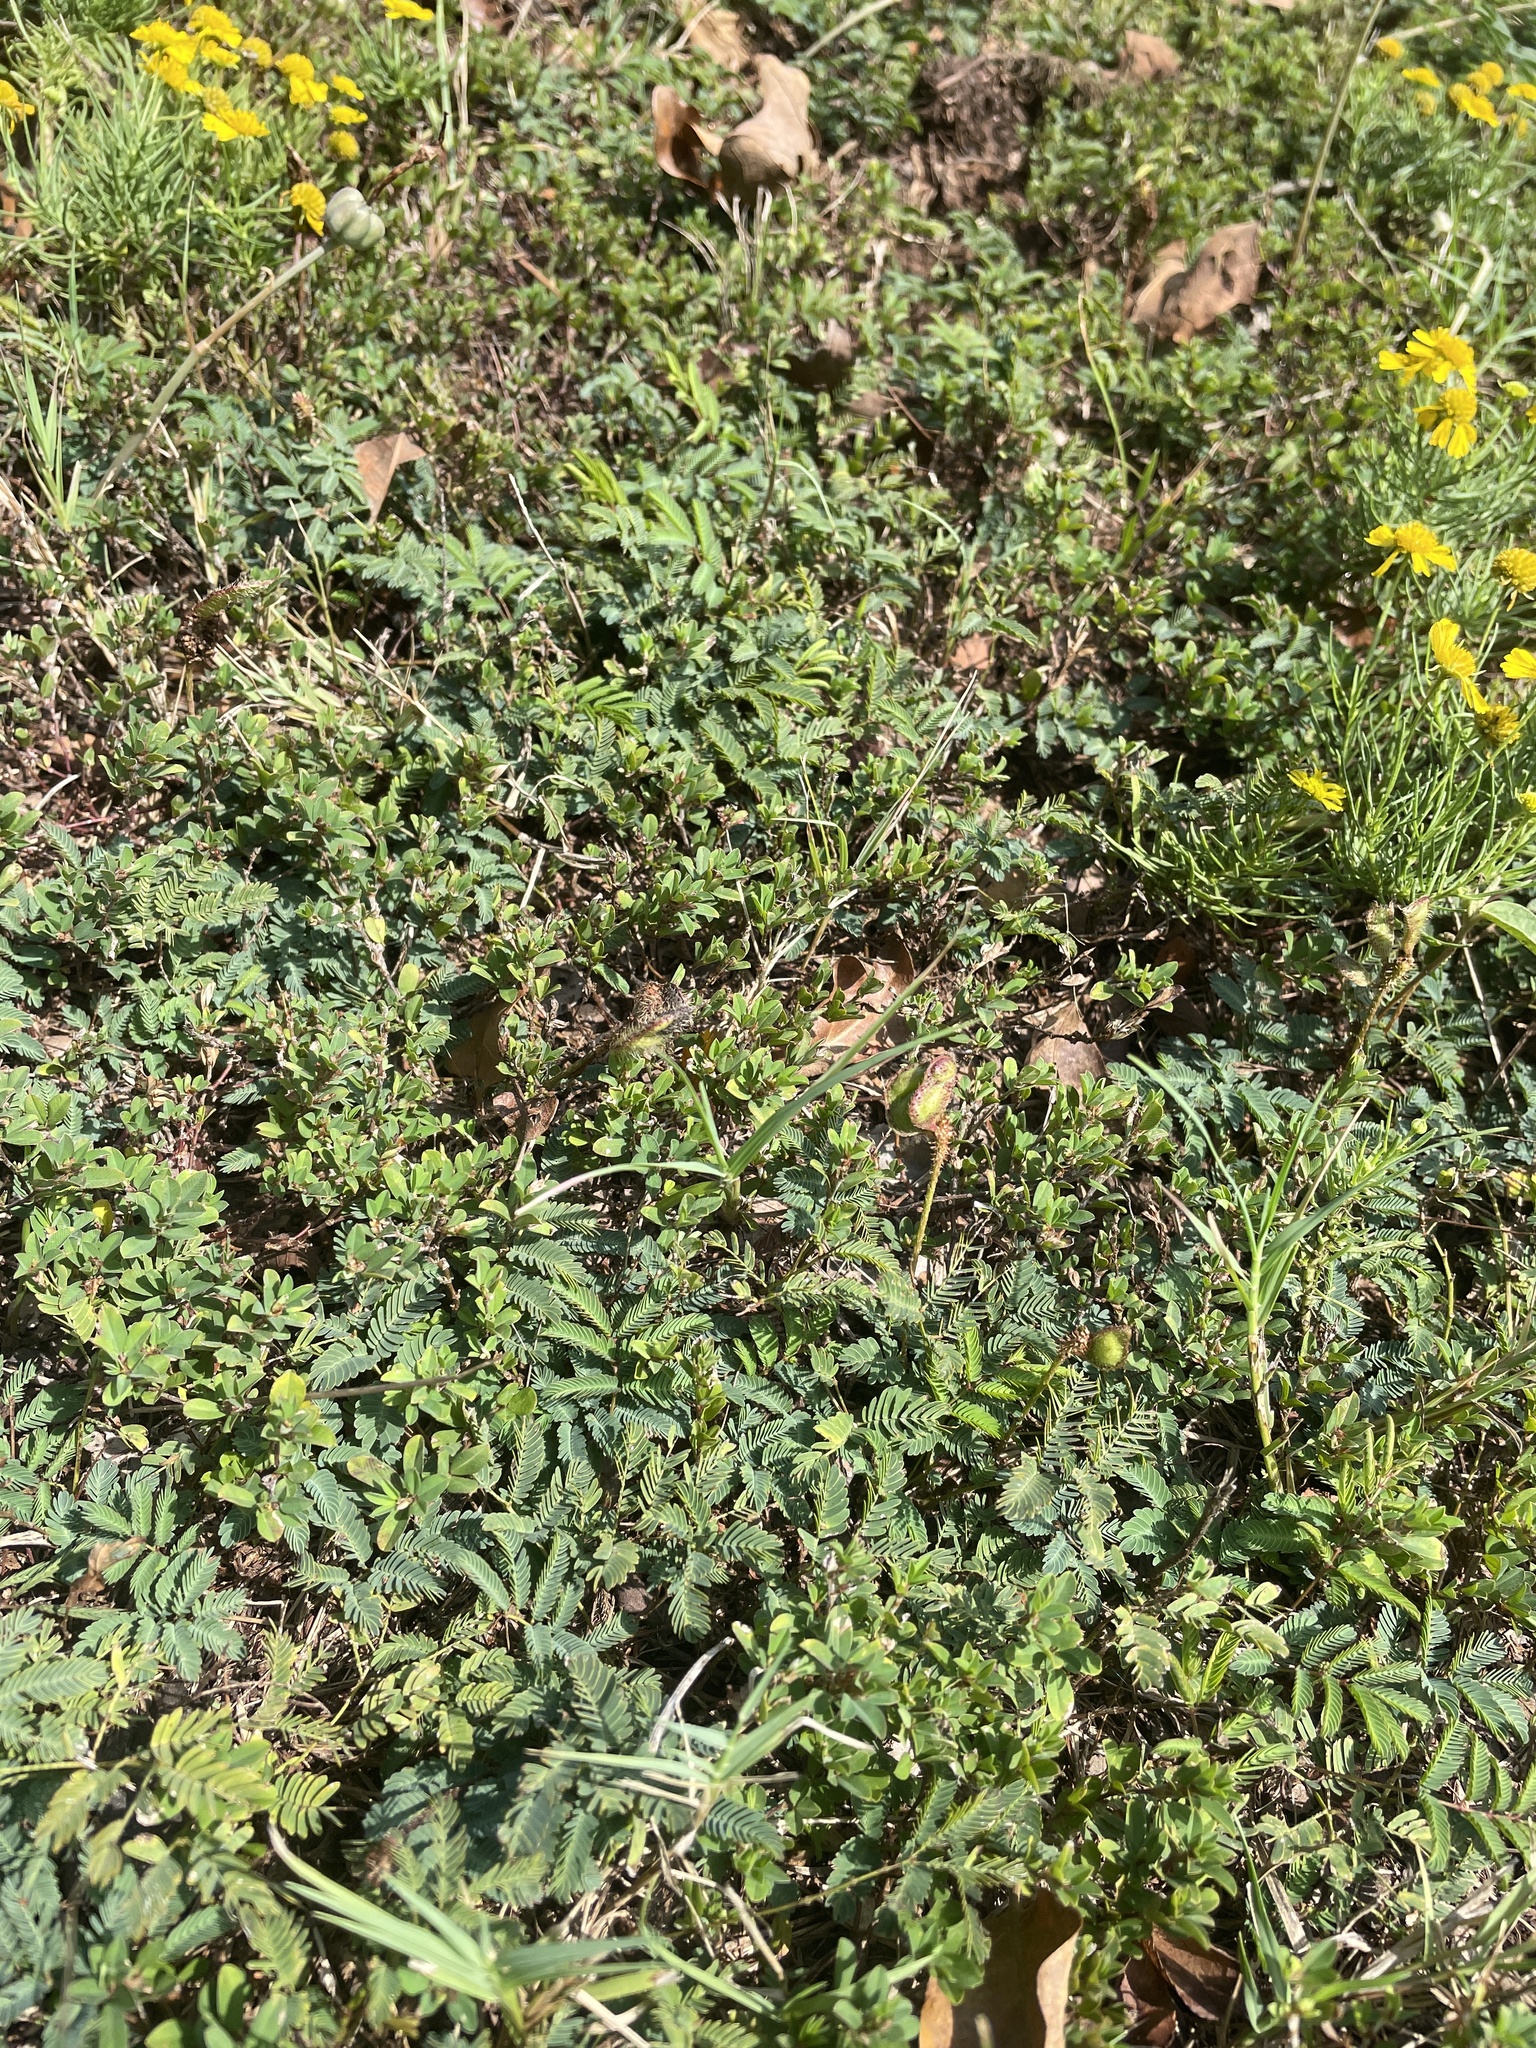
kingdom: Plantae
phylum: Tracheophyta
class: Magnoliopsida
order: Fabales
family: Fabaceae
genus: Mimosa
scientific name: Mimosa strigillosa
